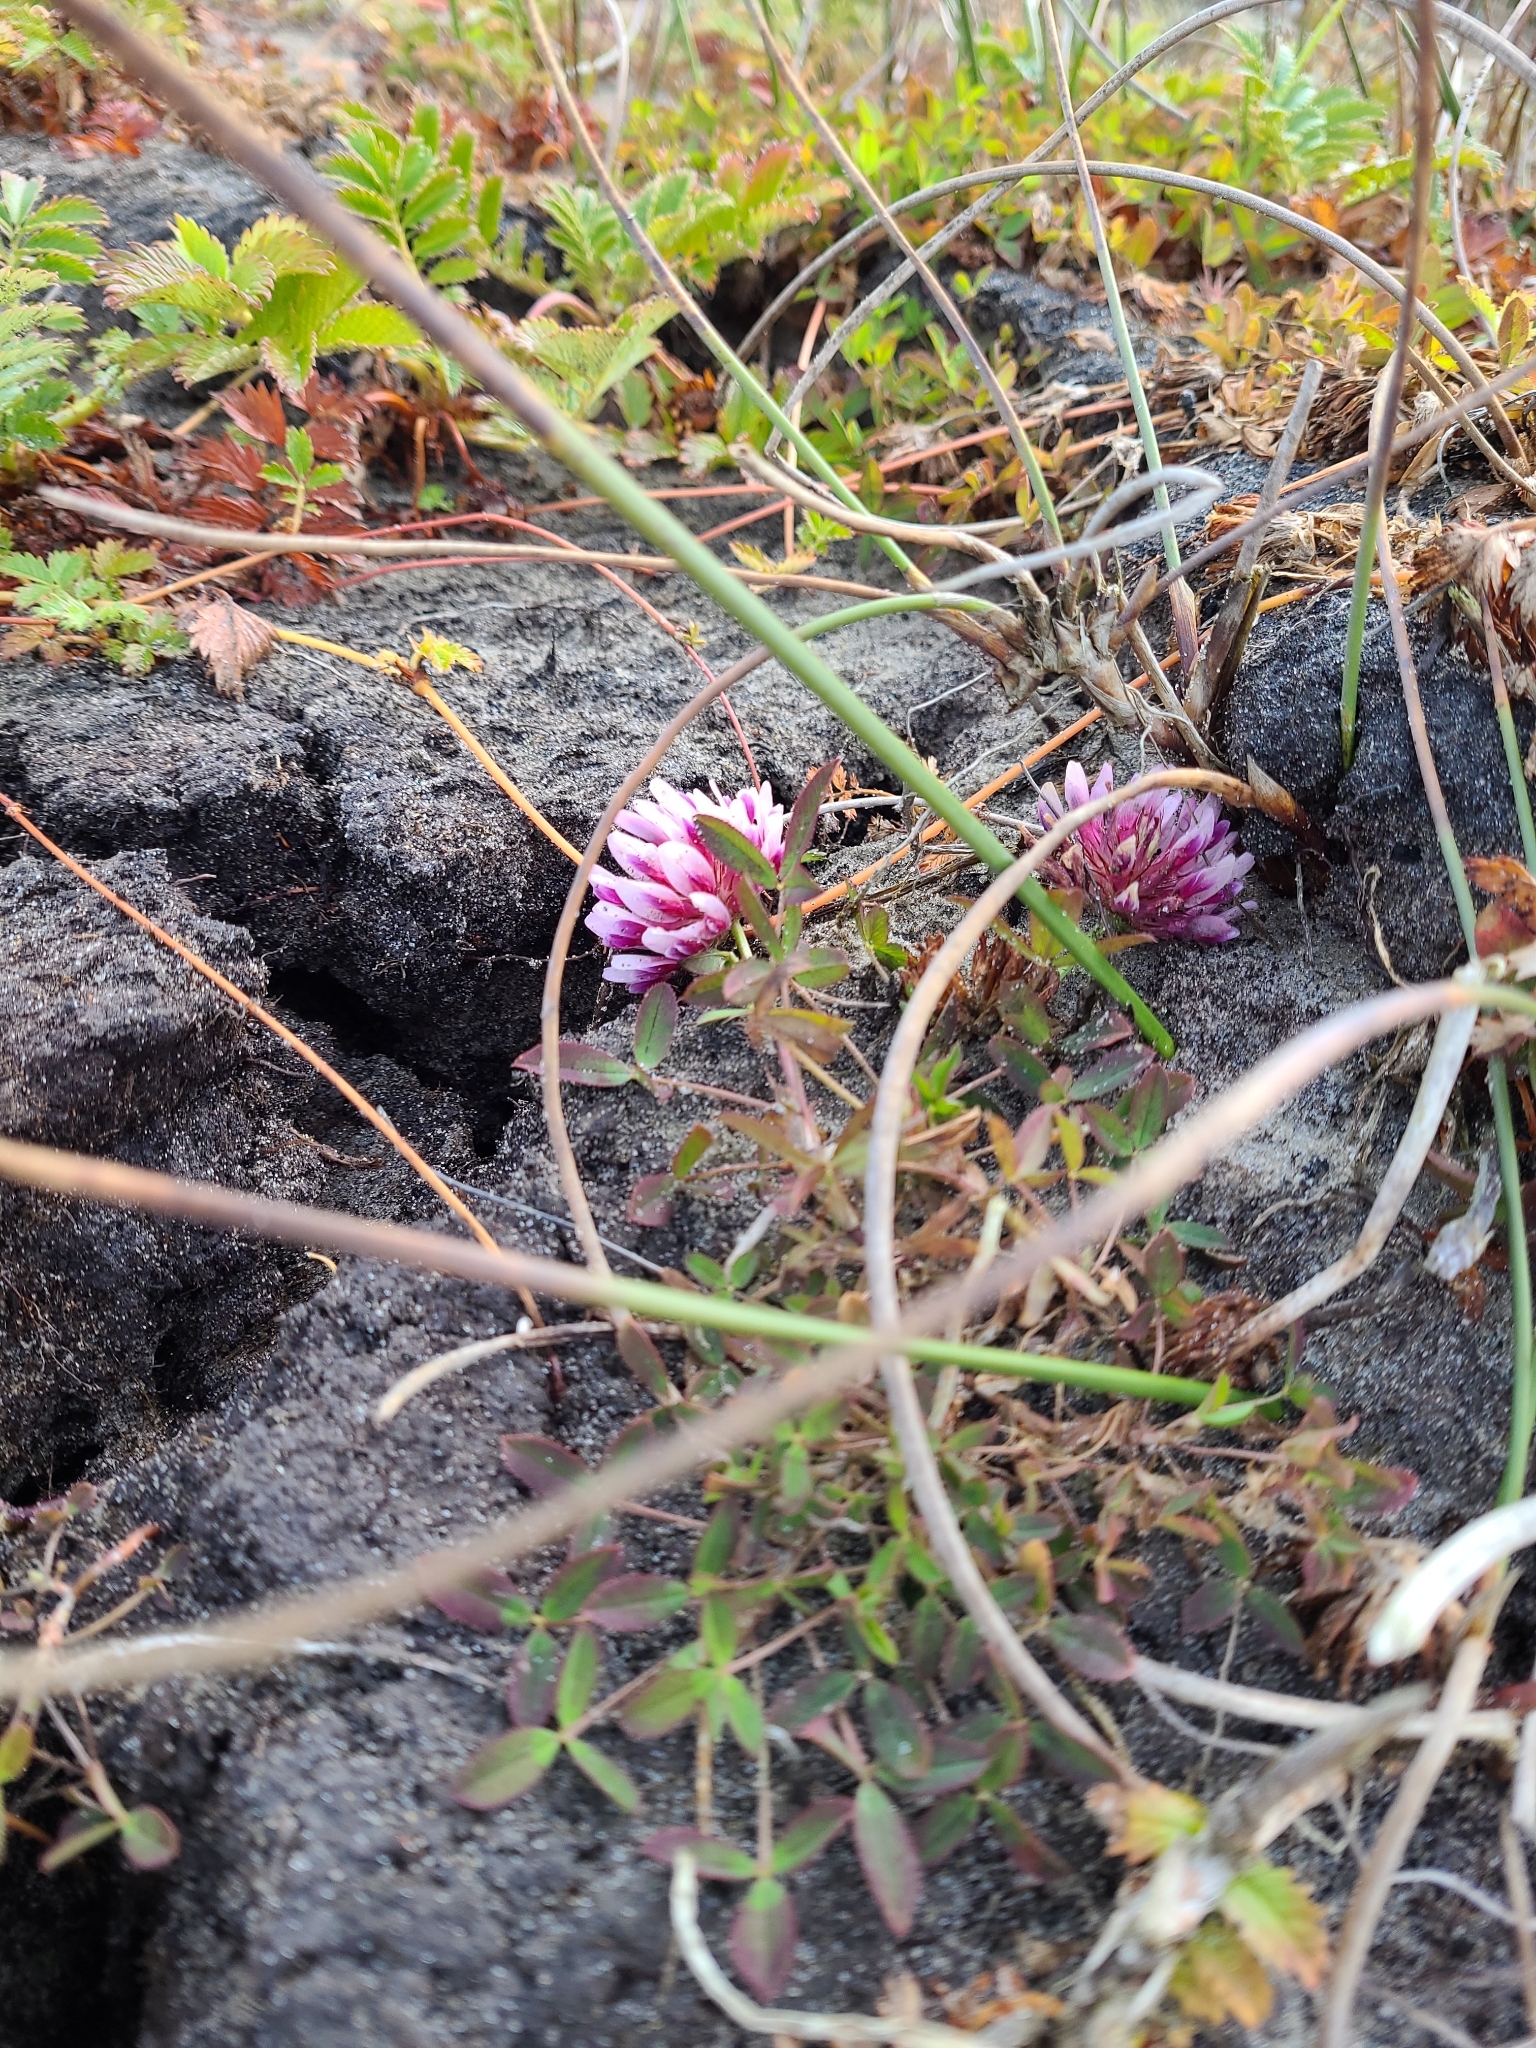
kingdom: Plantae
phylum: Tracheophyta
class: Magnoliopsida
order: Fabales
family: Fabaceae
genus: Trifolium
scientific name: Trifolium wormskioldii
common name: Springbank clover
